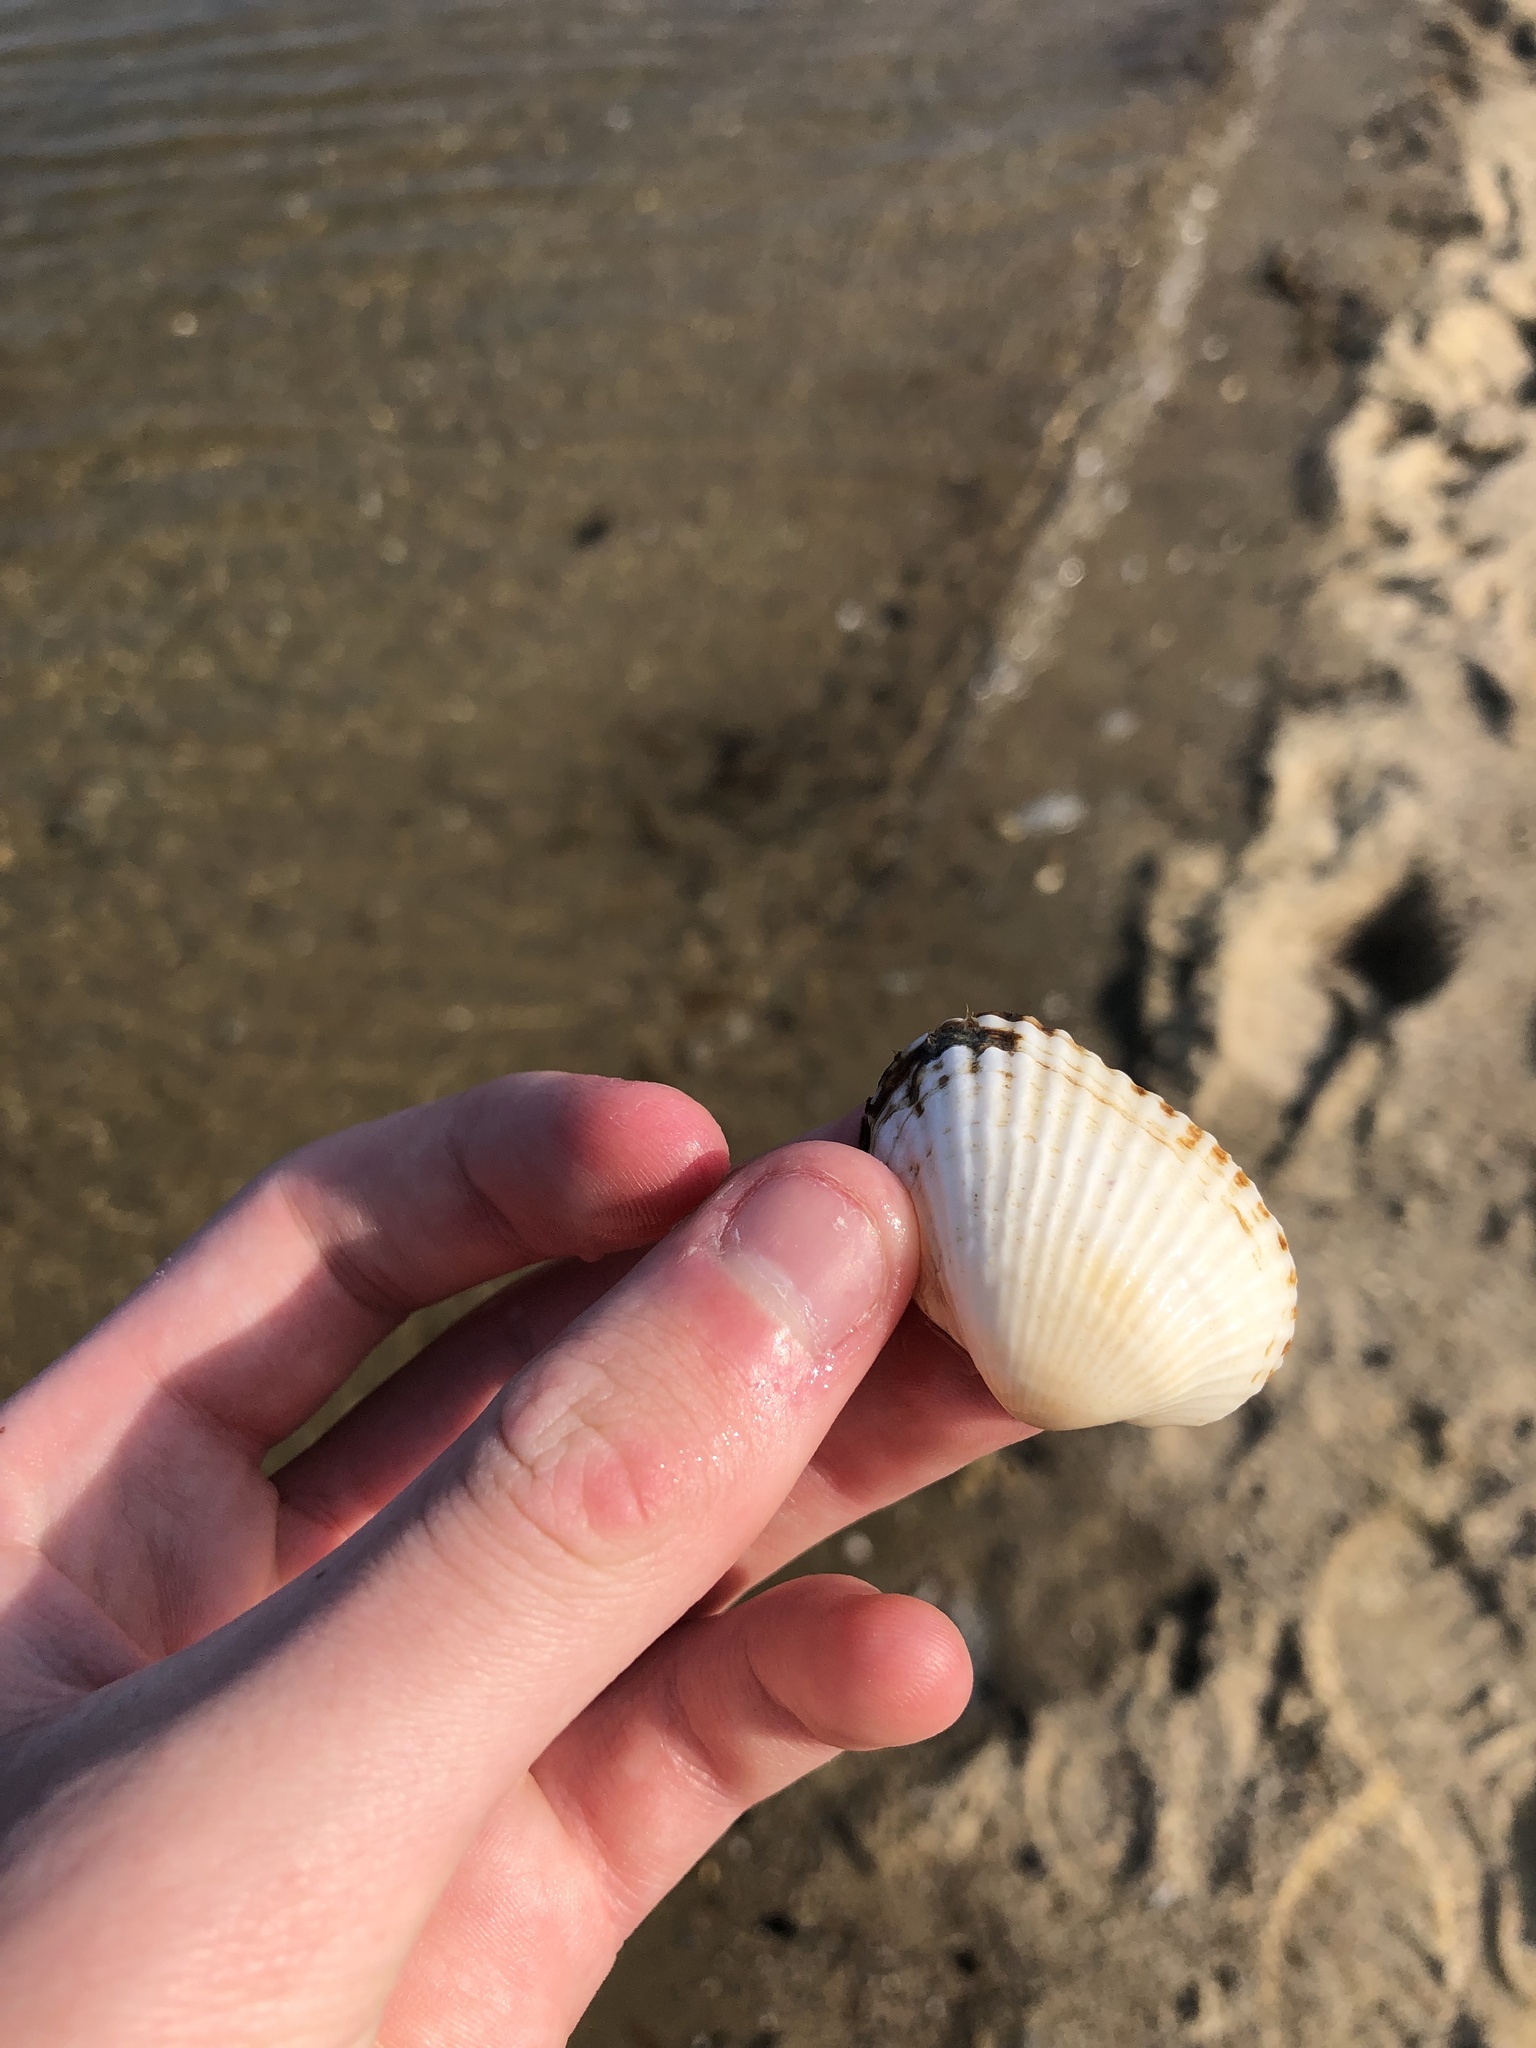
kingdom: Animalia
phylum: Mollusca
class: Bivalvia
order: Arcida
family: Arcidae
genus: Anadara
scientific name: Anadara transversa
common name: Transverse ark
